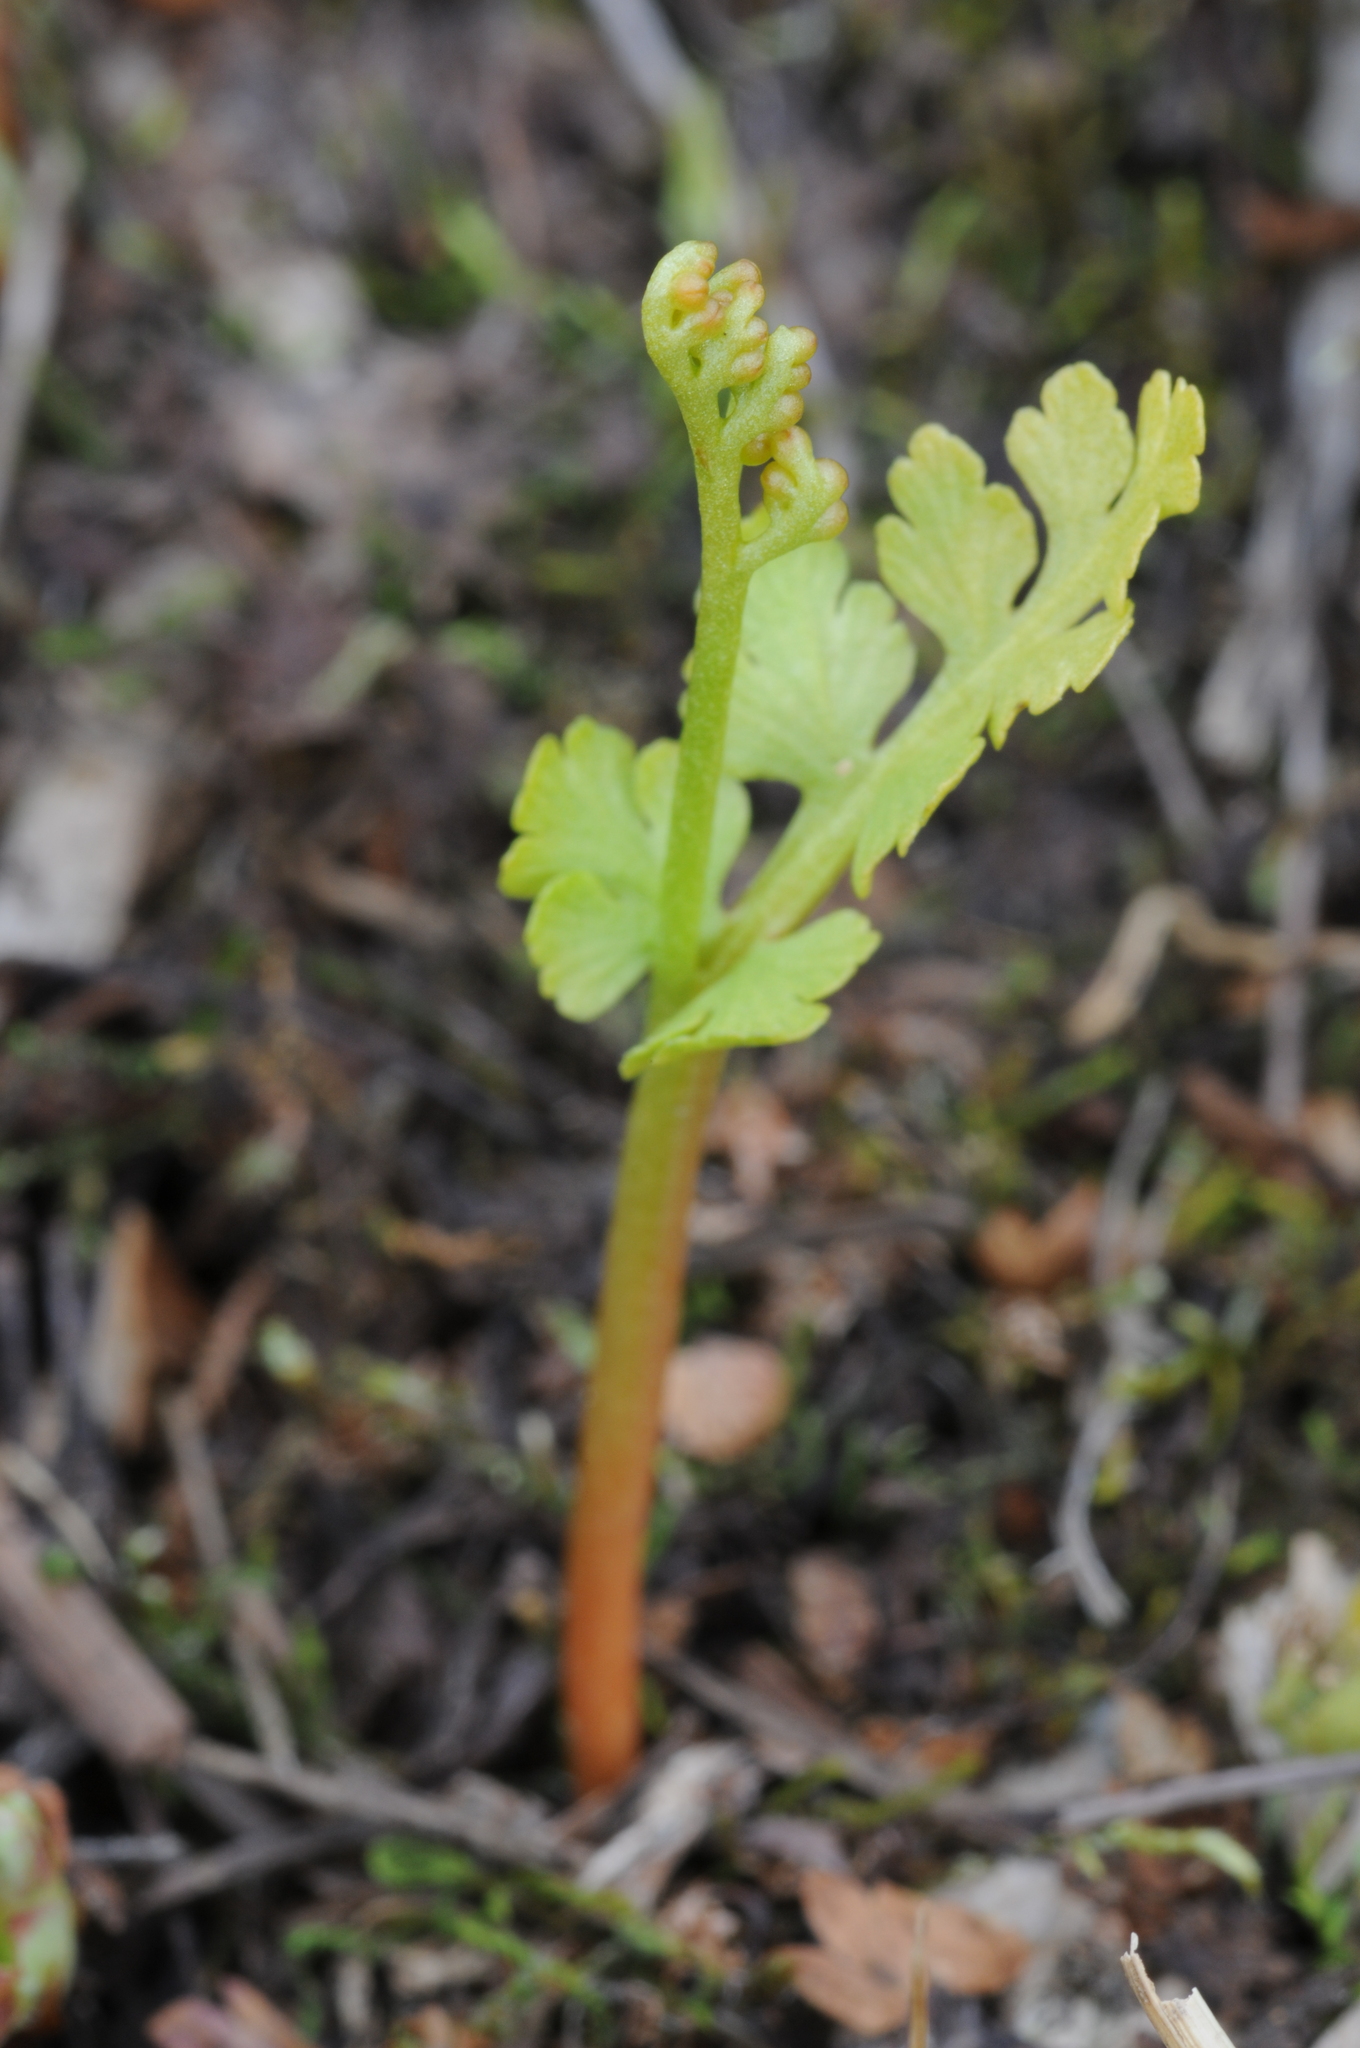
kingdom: Plantae
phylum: Tracheophyta
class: Polypodiopsida
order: Ophioglossales
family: Ophioglossaceae
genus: Botrychium
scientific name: Botrychium pinnatum
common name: Northwestern moonwort
